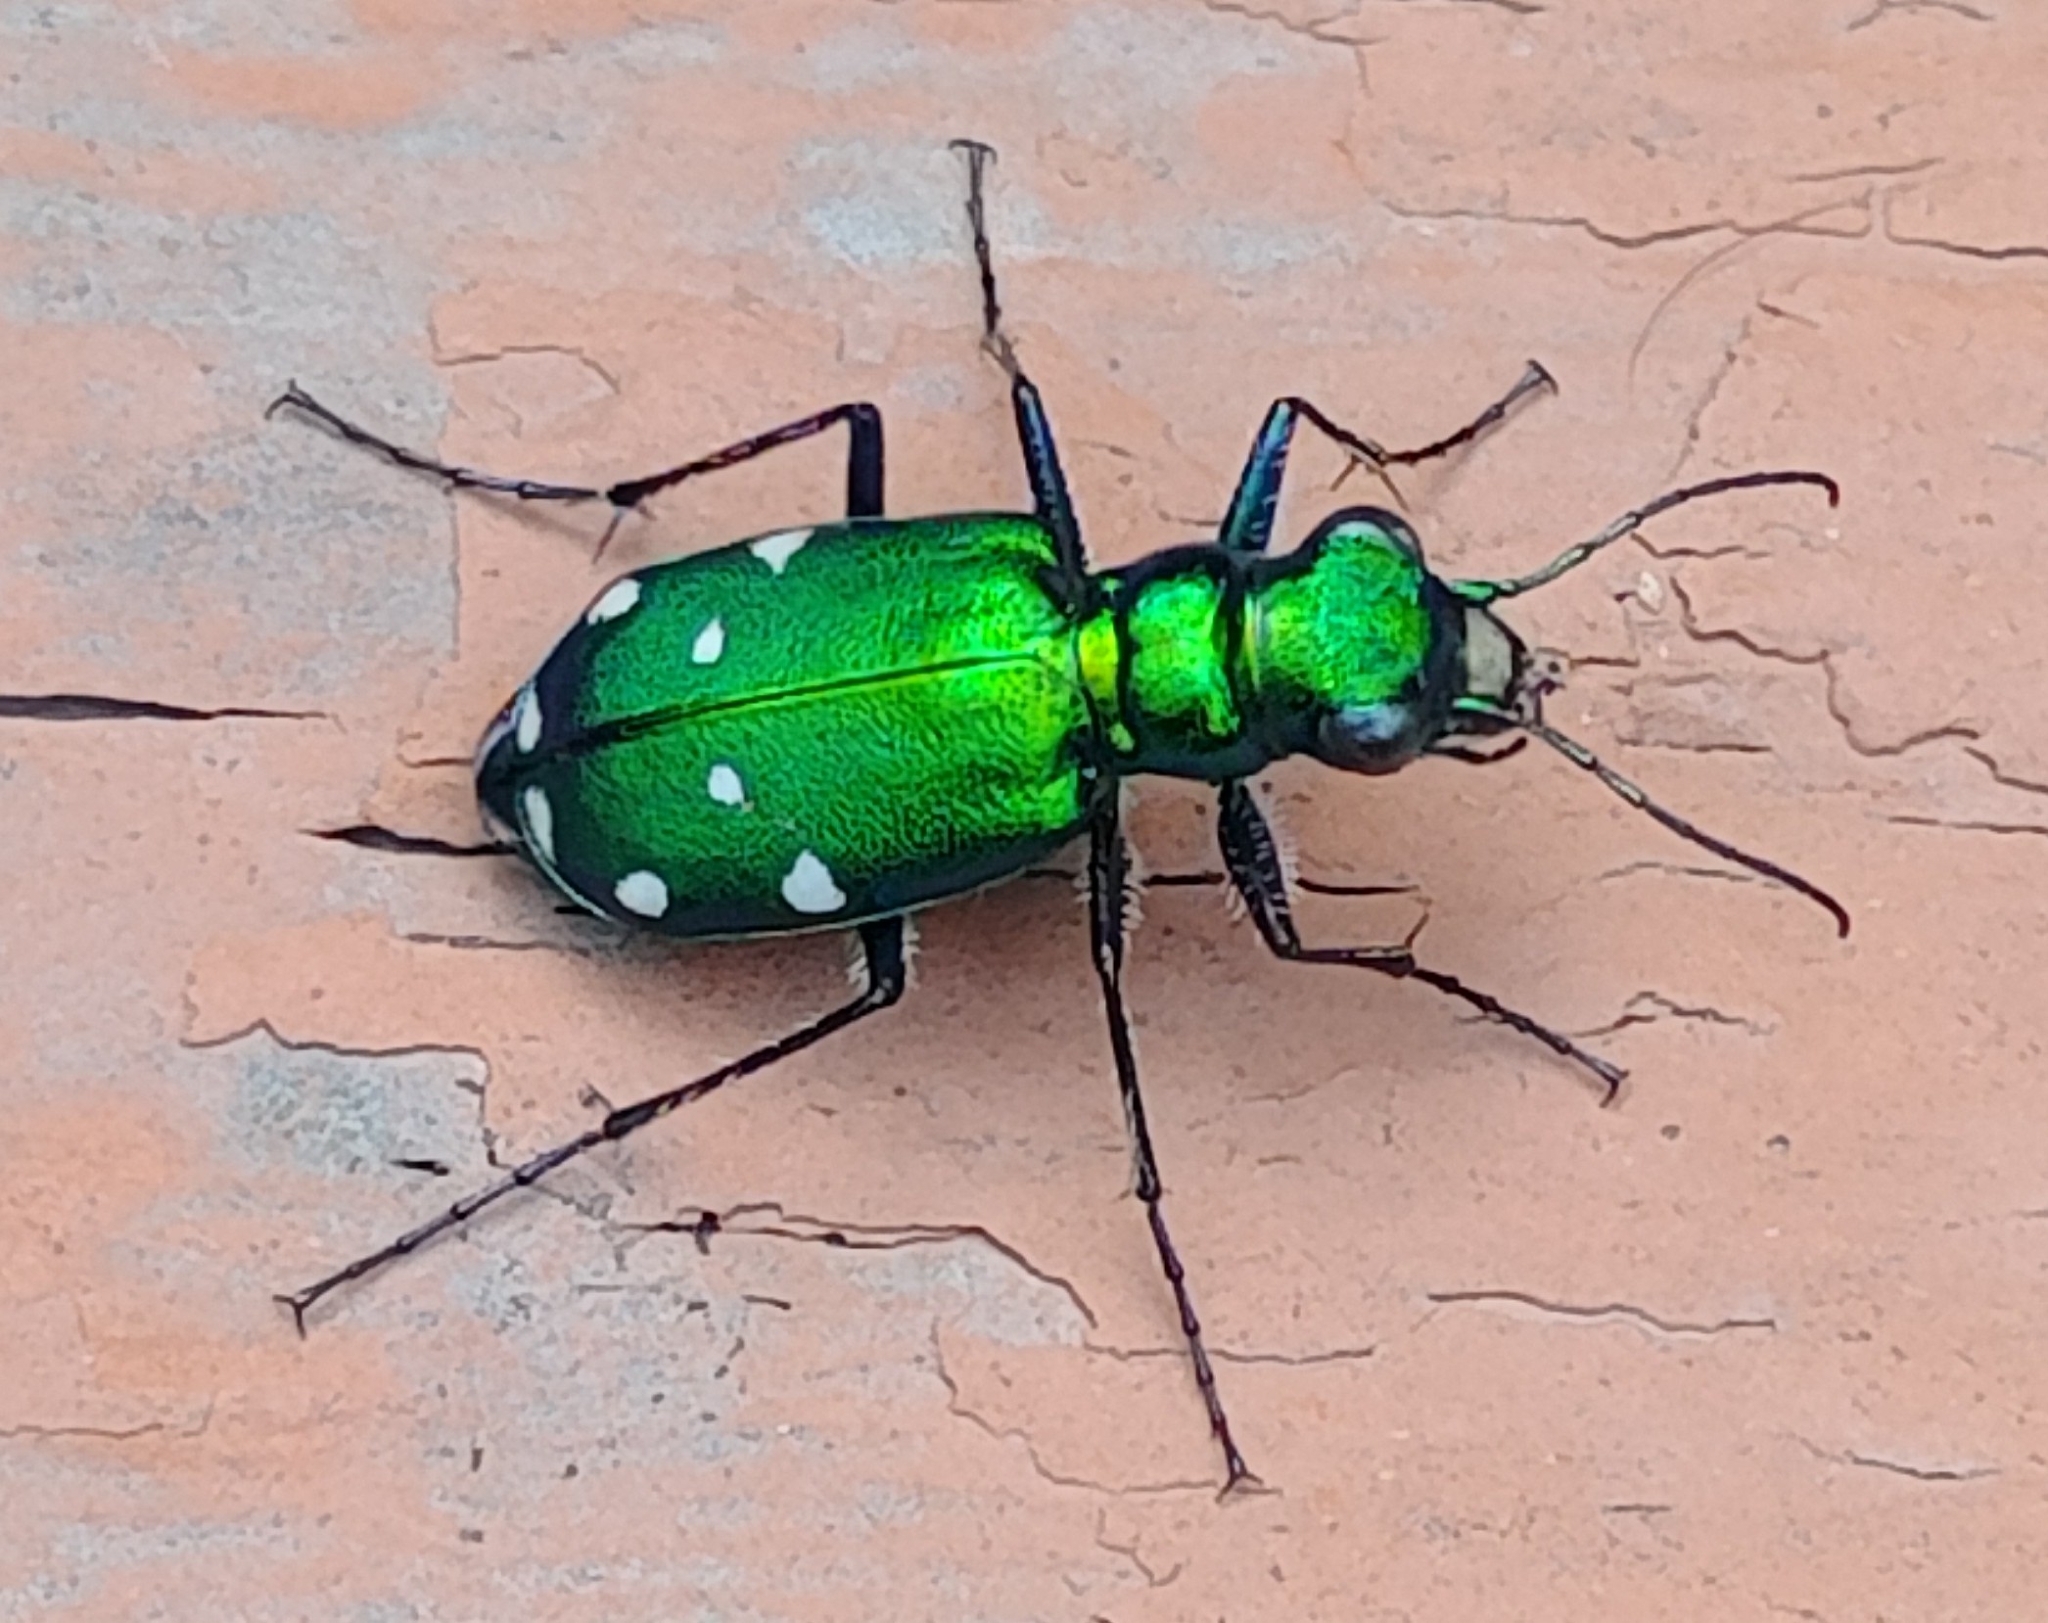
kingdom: Animalia
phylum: Arthropoda
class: Insecta
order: Coleoptera
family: Carabidae
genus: Cicindela
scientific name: Cicindela sexguttata
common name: Six-spotted tiger beetle
